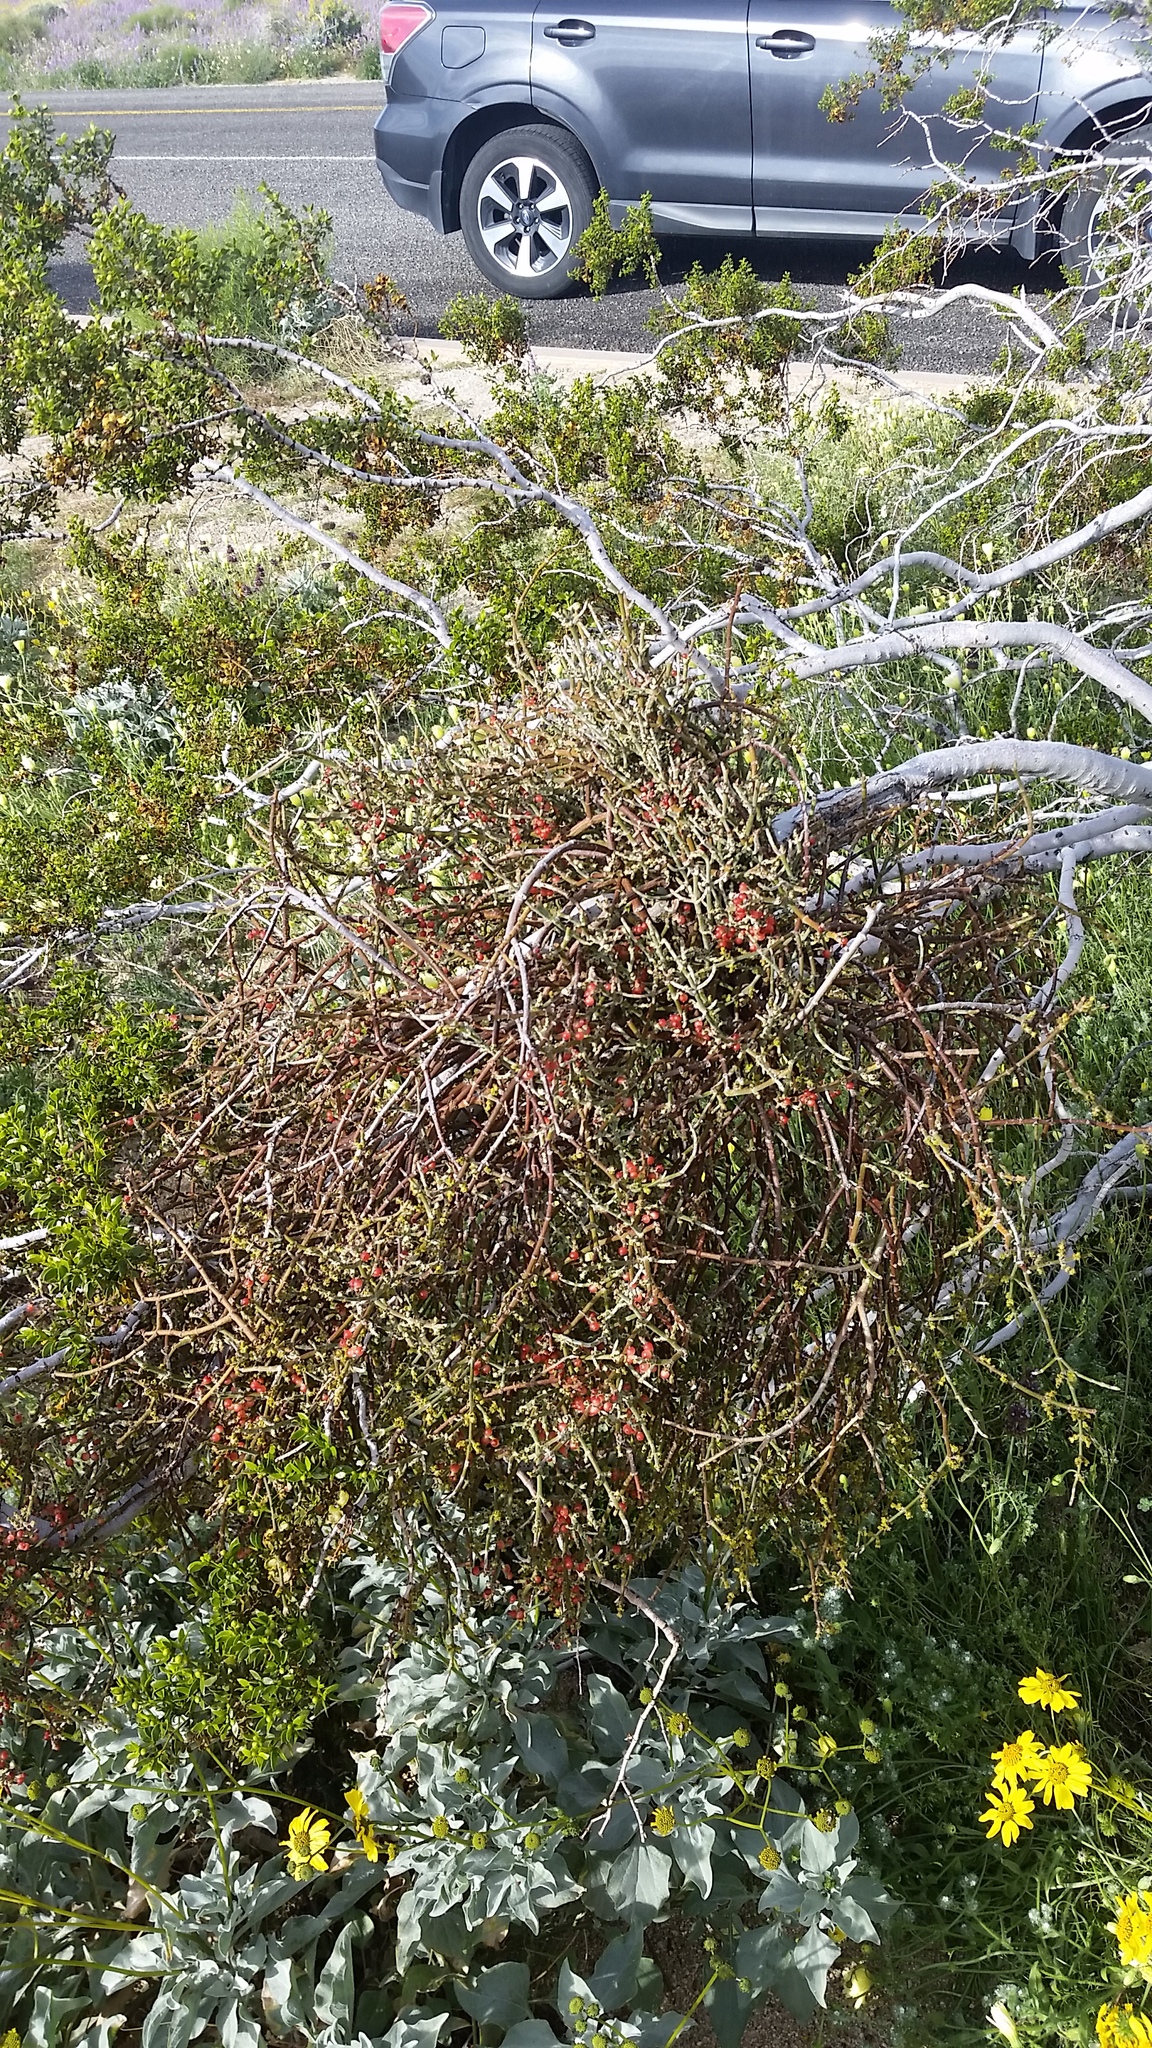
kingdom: Plantae
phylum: Tracheophyta
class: Magnoliopsida
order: Santalales
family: Viscaceae
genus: Phoradendron
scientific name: Phoradendron californicum
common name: Acacia mistletoe
